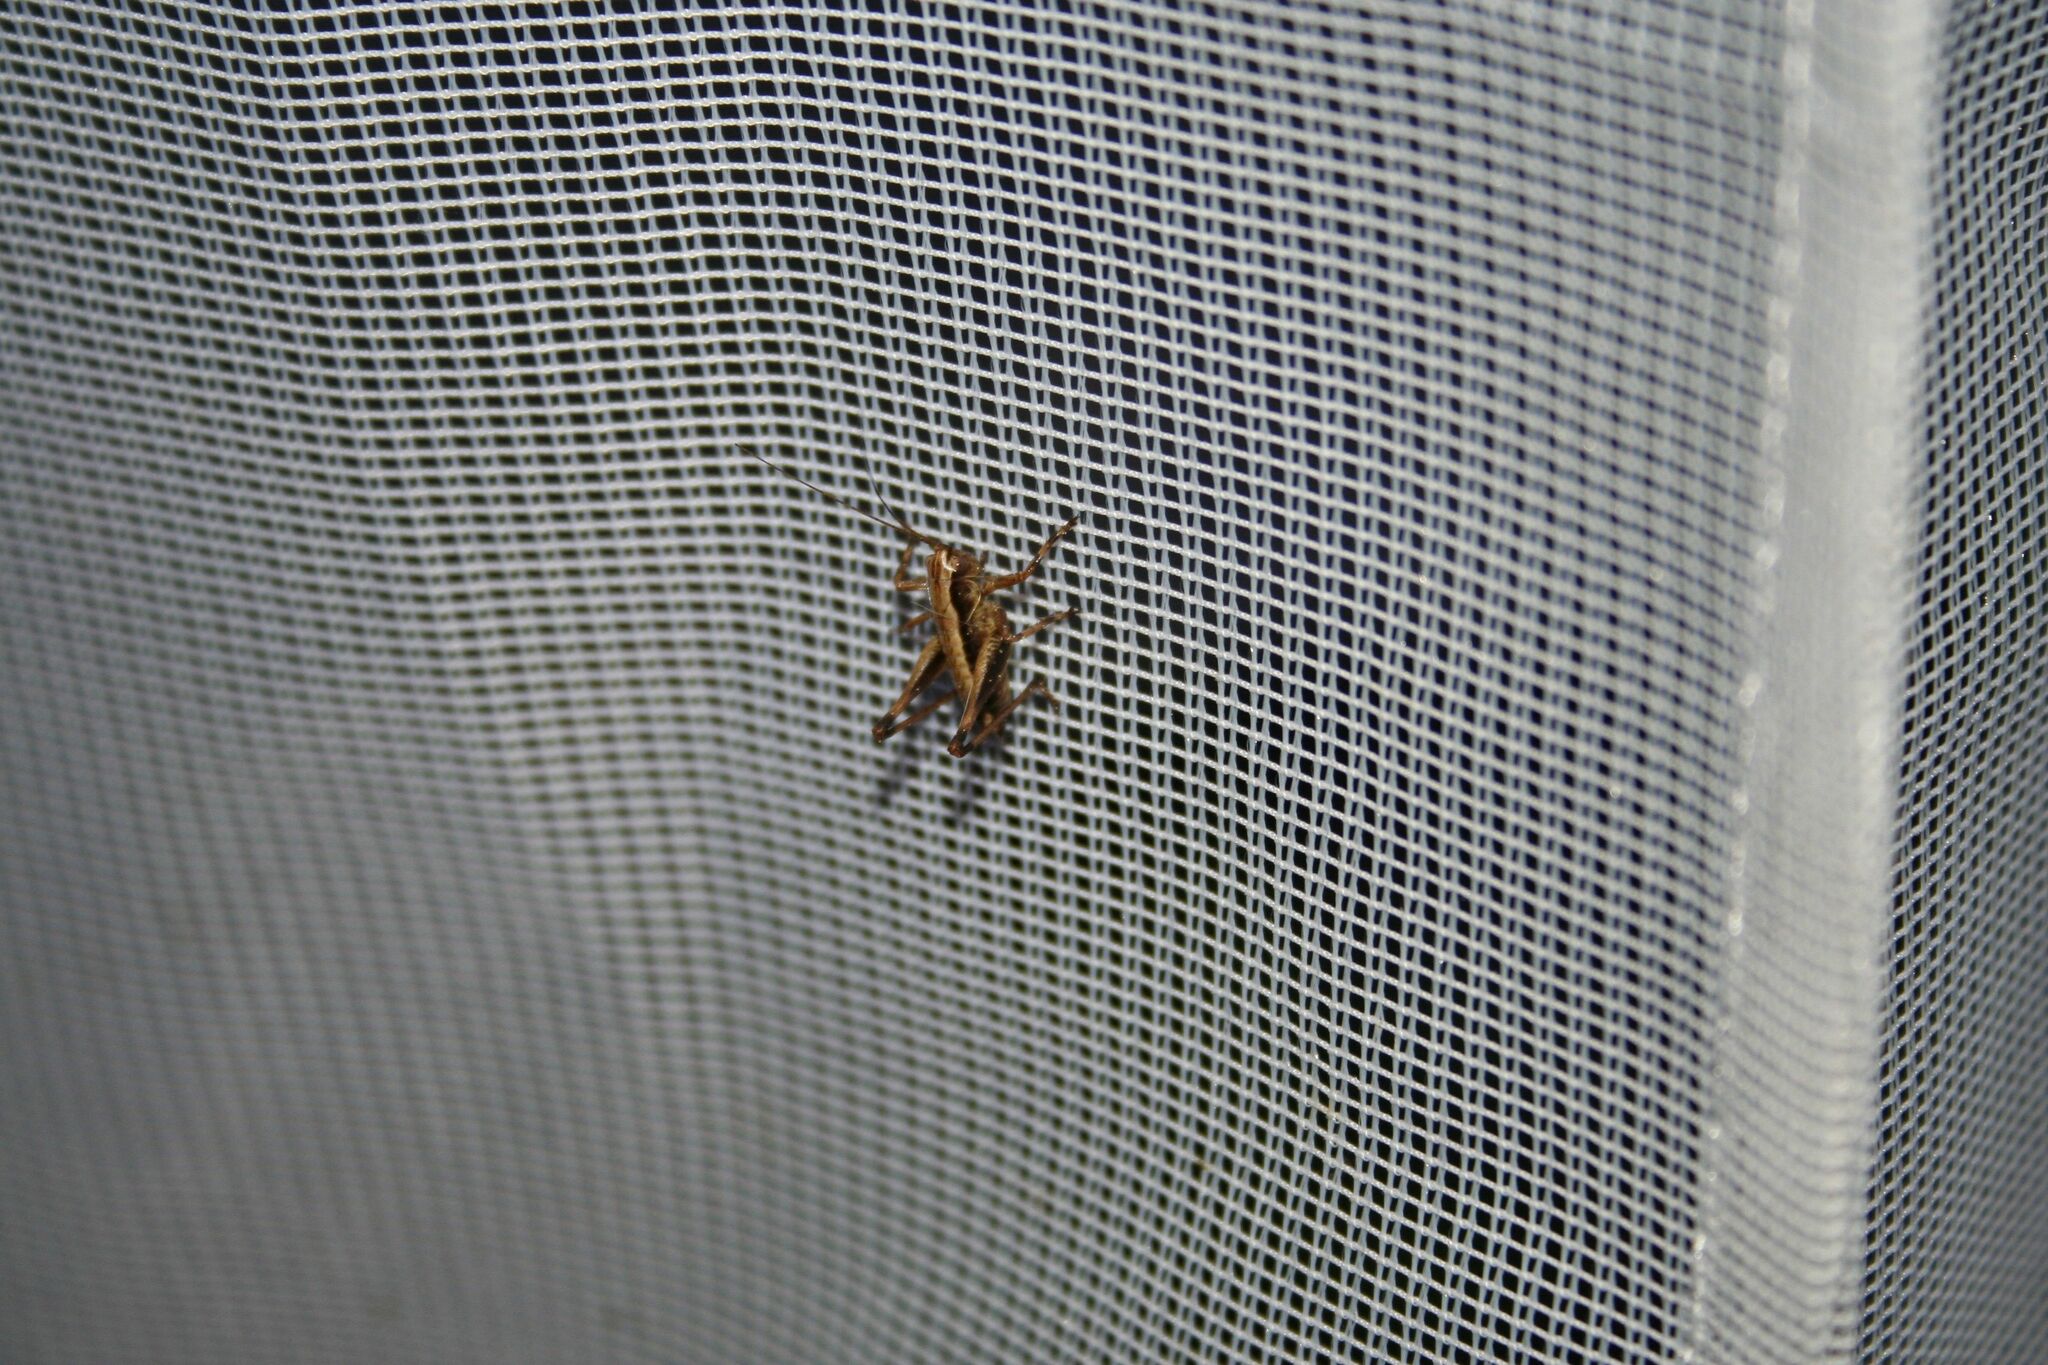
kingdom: Animalia
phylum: Arthropoda
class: Insecta
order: Orthoptera
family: Tettigoniidae
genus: Pholidoptera
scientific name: Pholidoptera griseoaptera
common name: Dark bush-cricket
